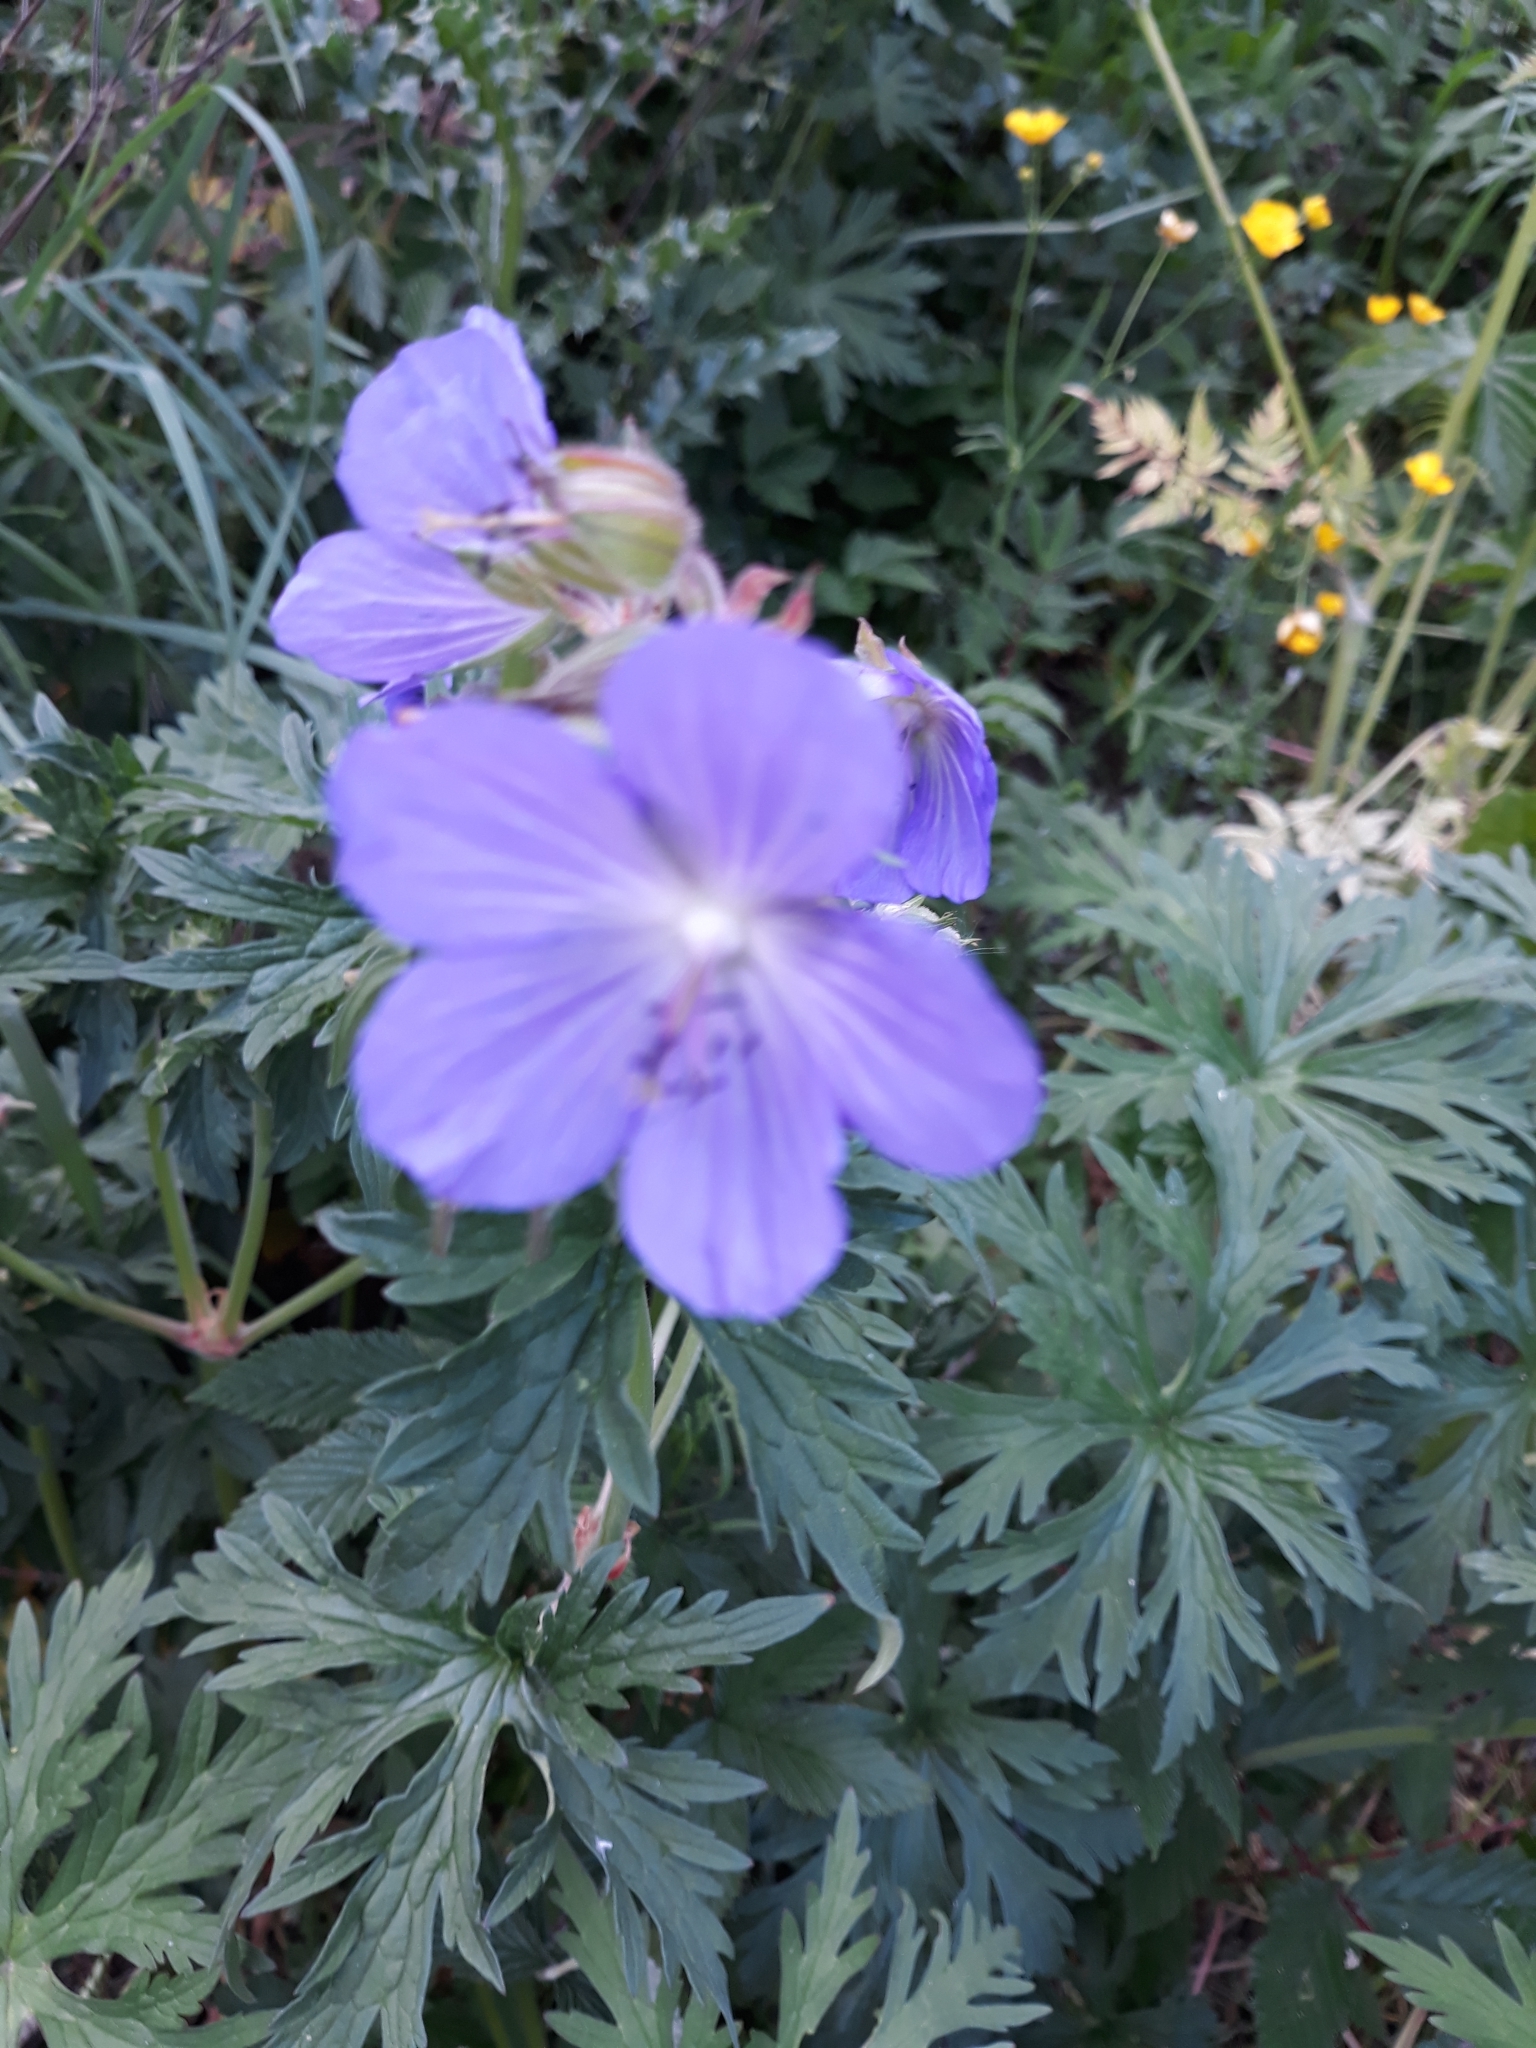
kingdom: Plantae
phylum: Tracheophyta
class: Magnoliopsida
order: Geraniales
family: Geraniaceae
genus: Geranium
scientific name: Geranium pratense
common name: Meadow crane's-bill
